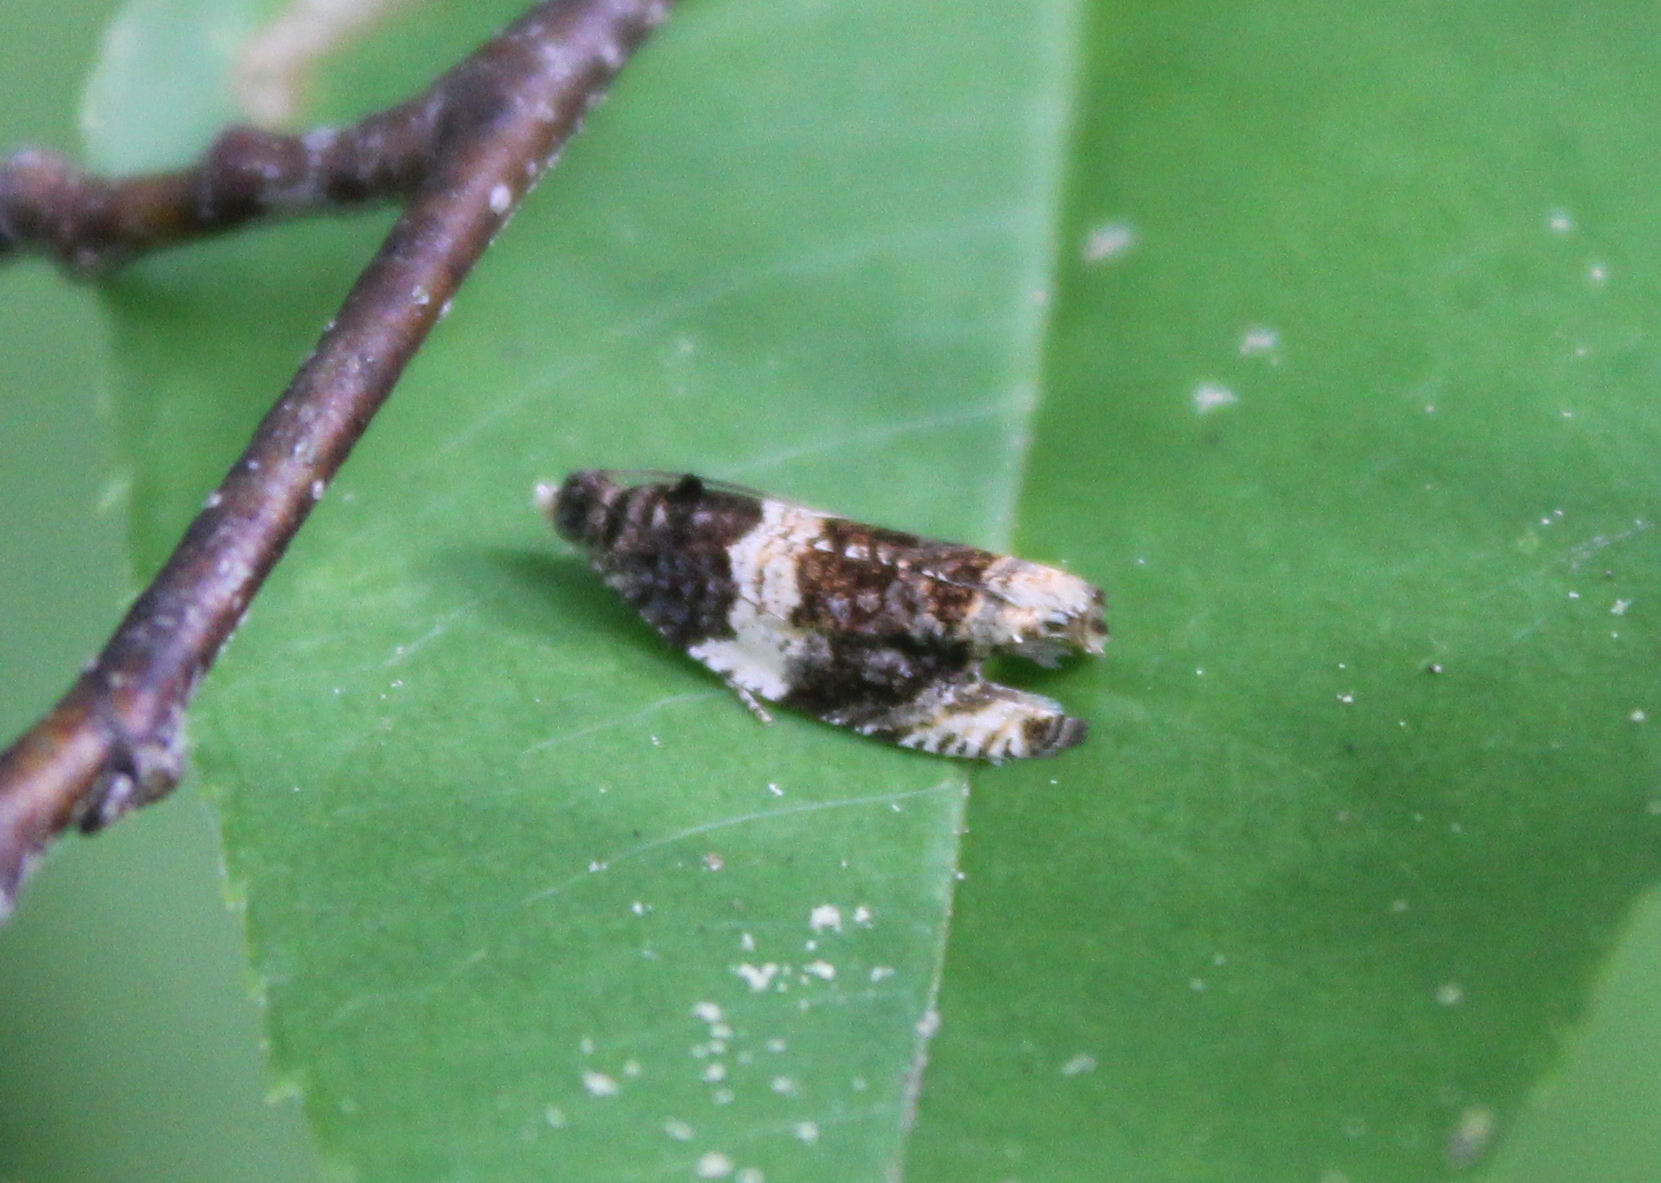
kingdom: Animalia
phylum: Arthropoda
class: Insecta
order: Lepidoptera
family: Tortricidae
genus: Olethreutes
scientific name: Olethreutes fasciatana
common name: Banded olethreutes moth
